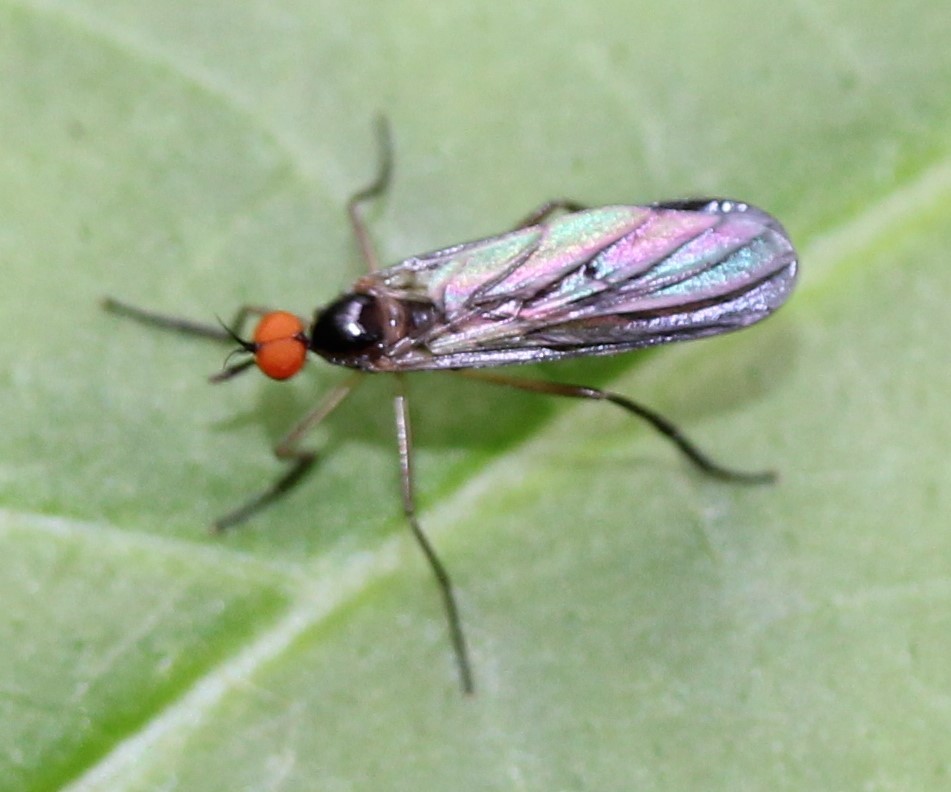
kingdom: Animalia
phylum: Arthropoda
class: Insecta
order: Diptera
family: Empididae
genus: Rhamphomyia
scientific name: Rhamphomyia longicauda
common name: Long-tailed dance fly
